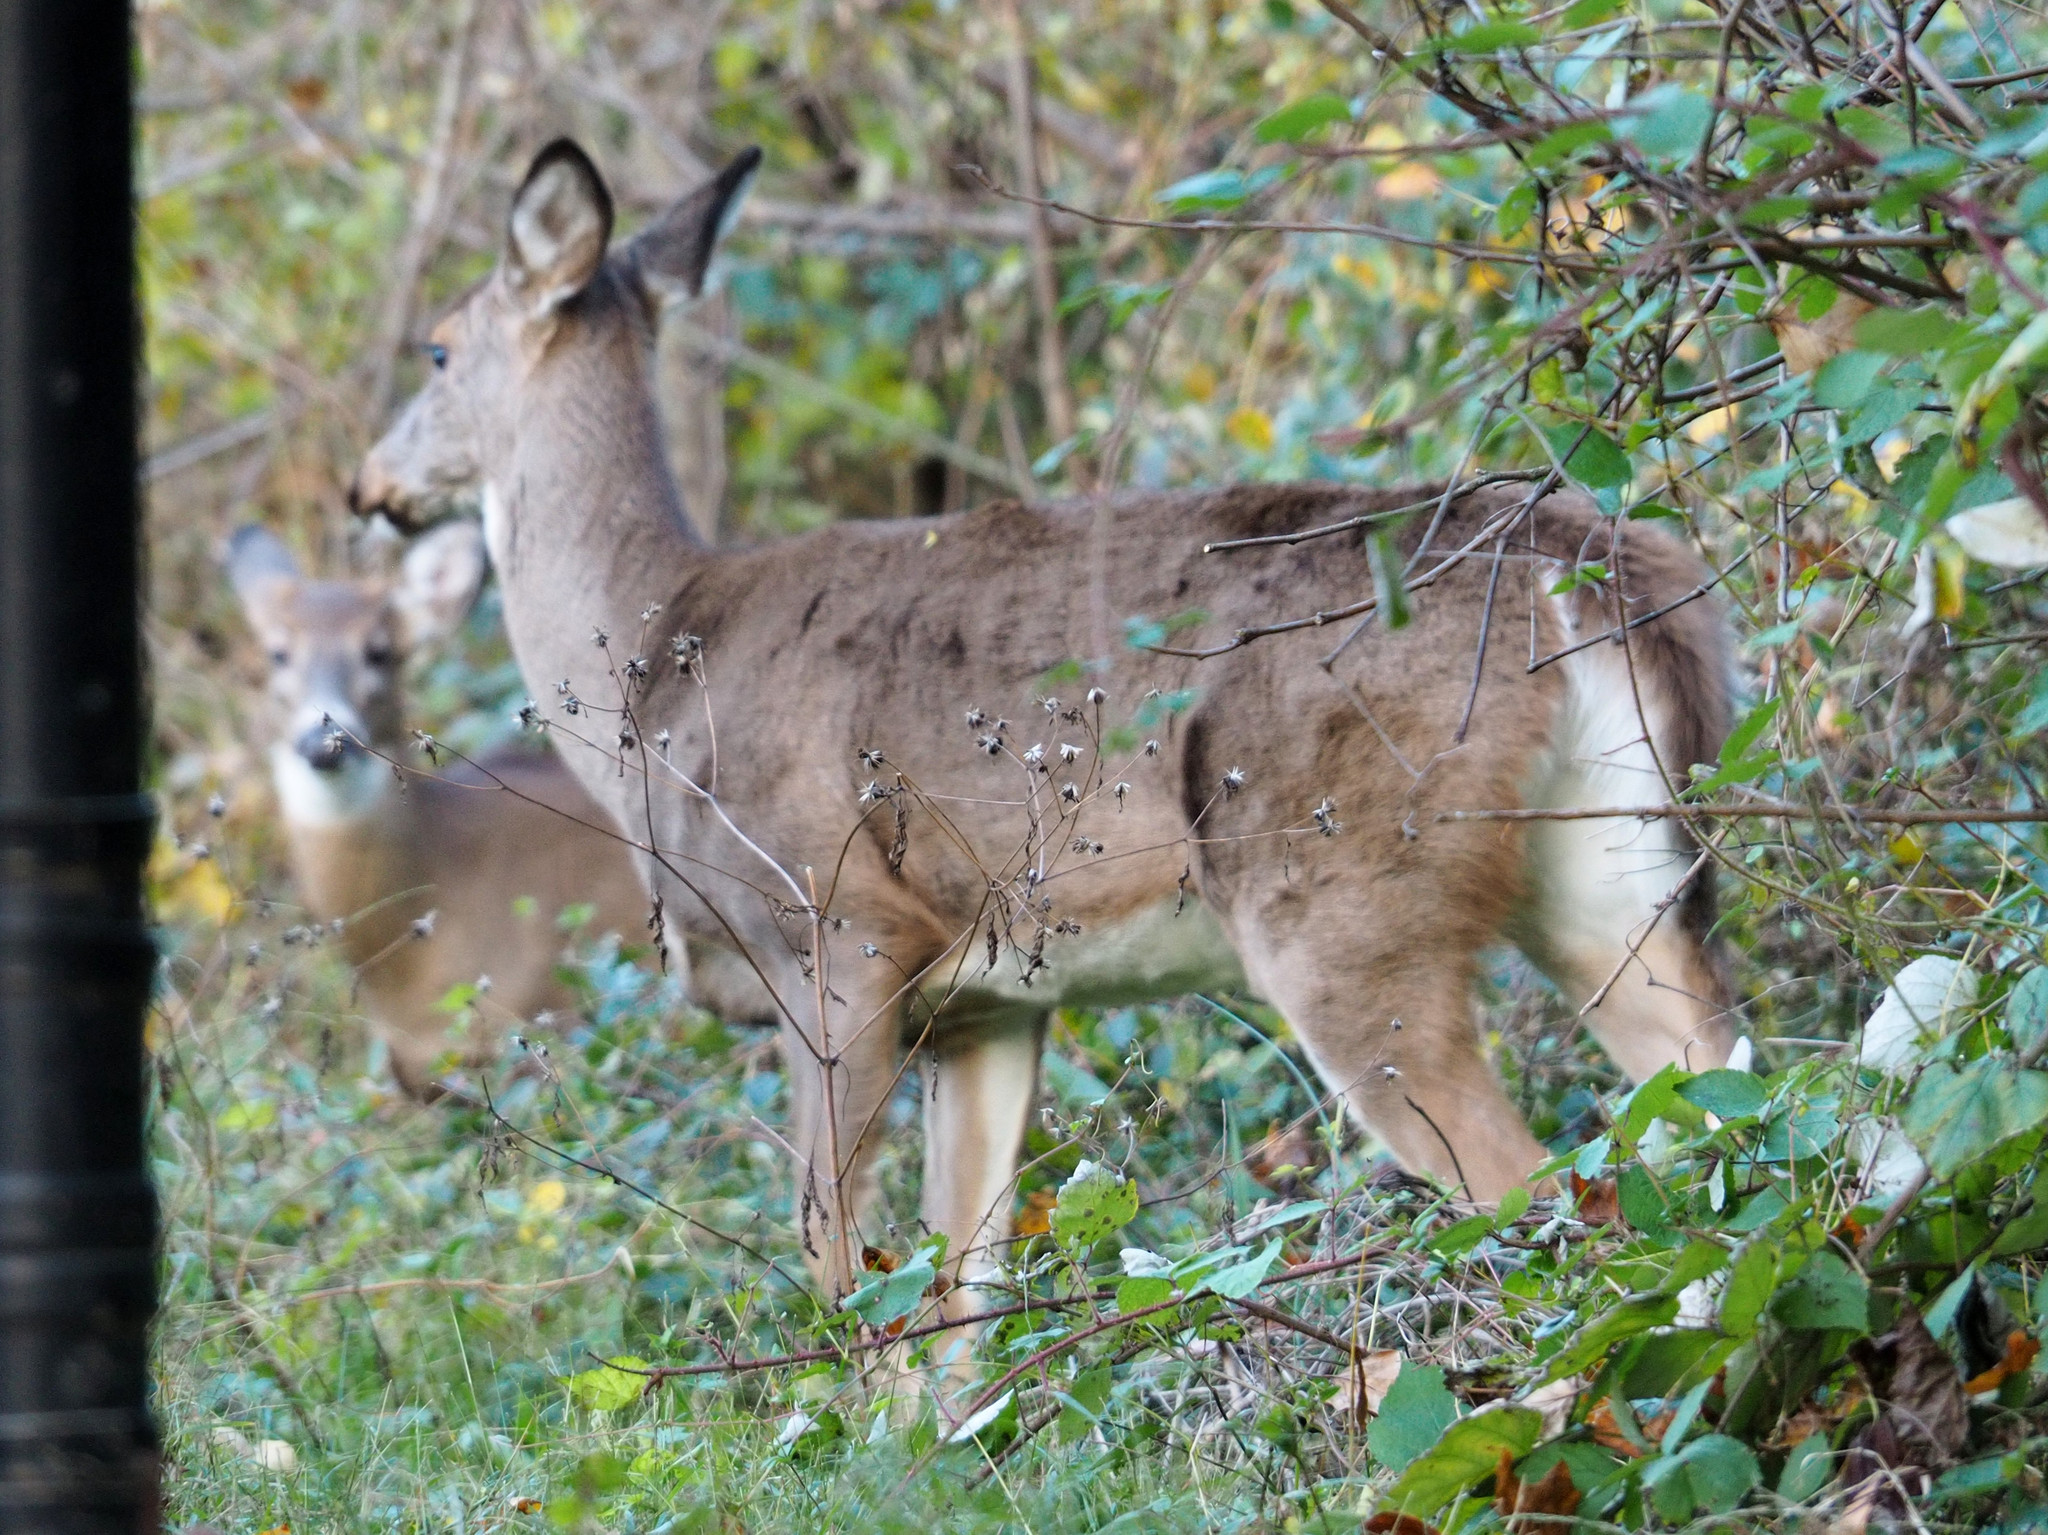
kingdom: Animalia
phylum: Chordata
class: Mammalia
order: Artiodactyla
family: Cervidae
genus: Odocoileus
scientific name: Odocoileus virginianus
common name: White-tailed deer
